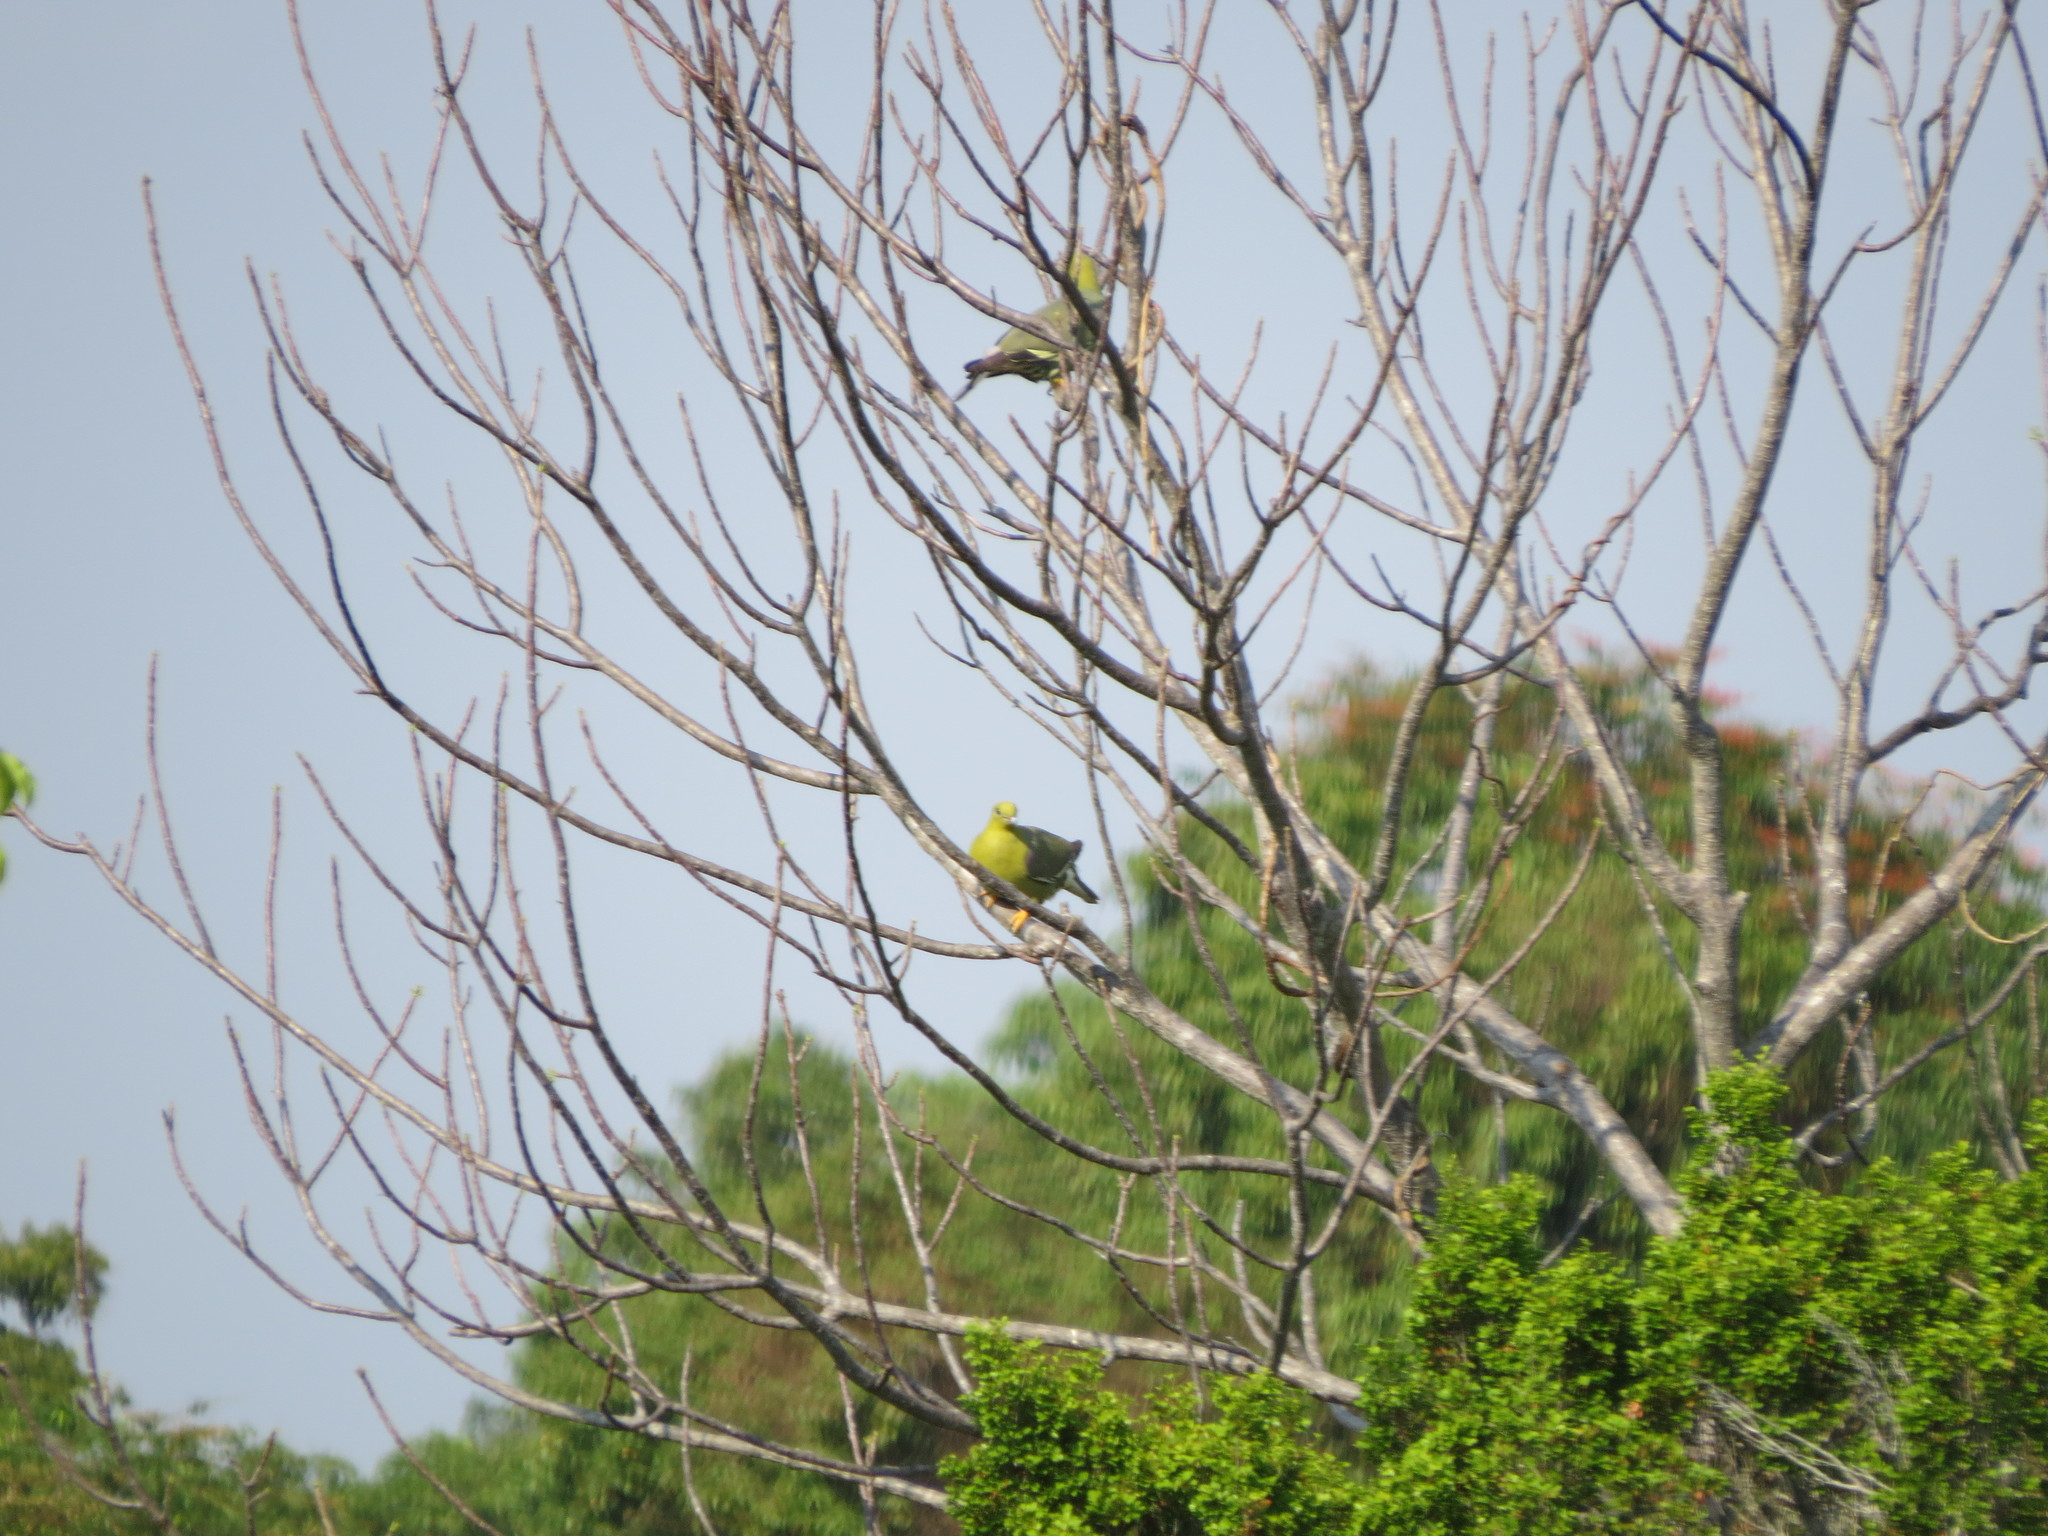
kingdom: Animalia
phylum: Chordata
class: Aves
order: Columbiformes
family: Columbidae
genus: Treron
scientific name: Treron australis
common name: Madagascar green pigeon
